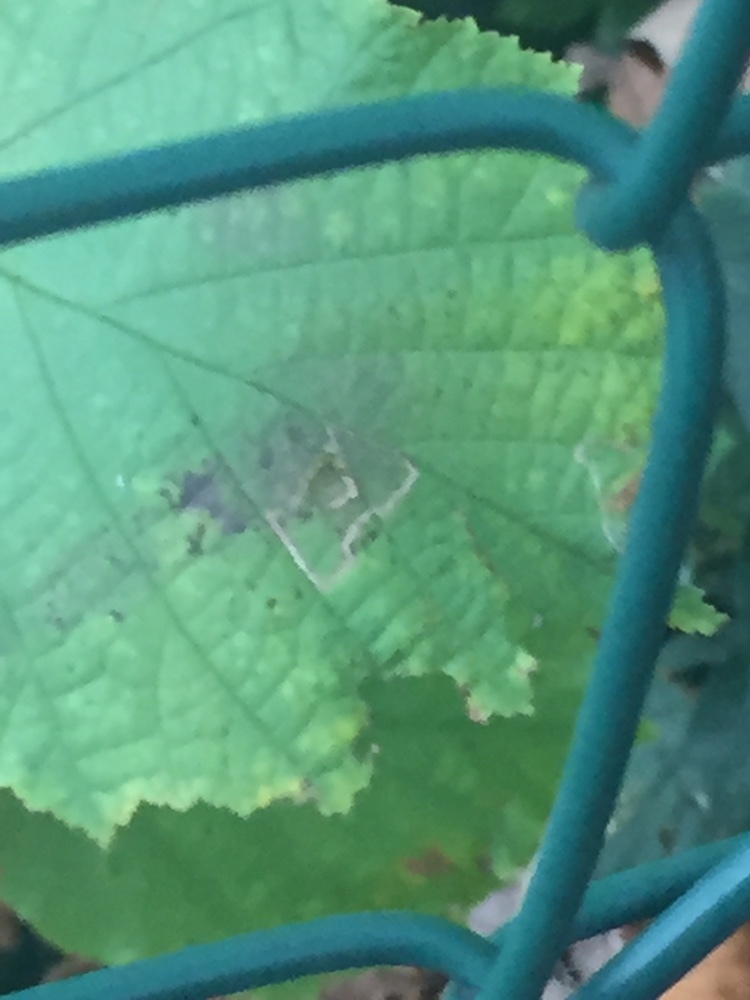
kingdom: Plantae
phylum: Tracheophyta
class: Magnoliopsida
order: Fagales
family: Betulaceae
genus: Corylus
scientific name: Corylus avellana
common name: European hazel
